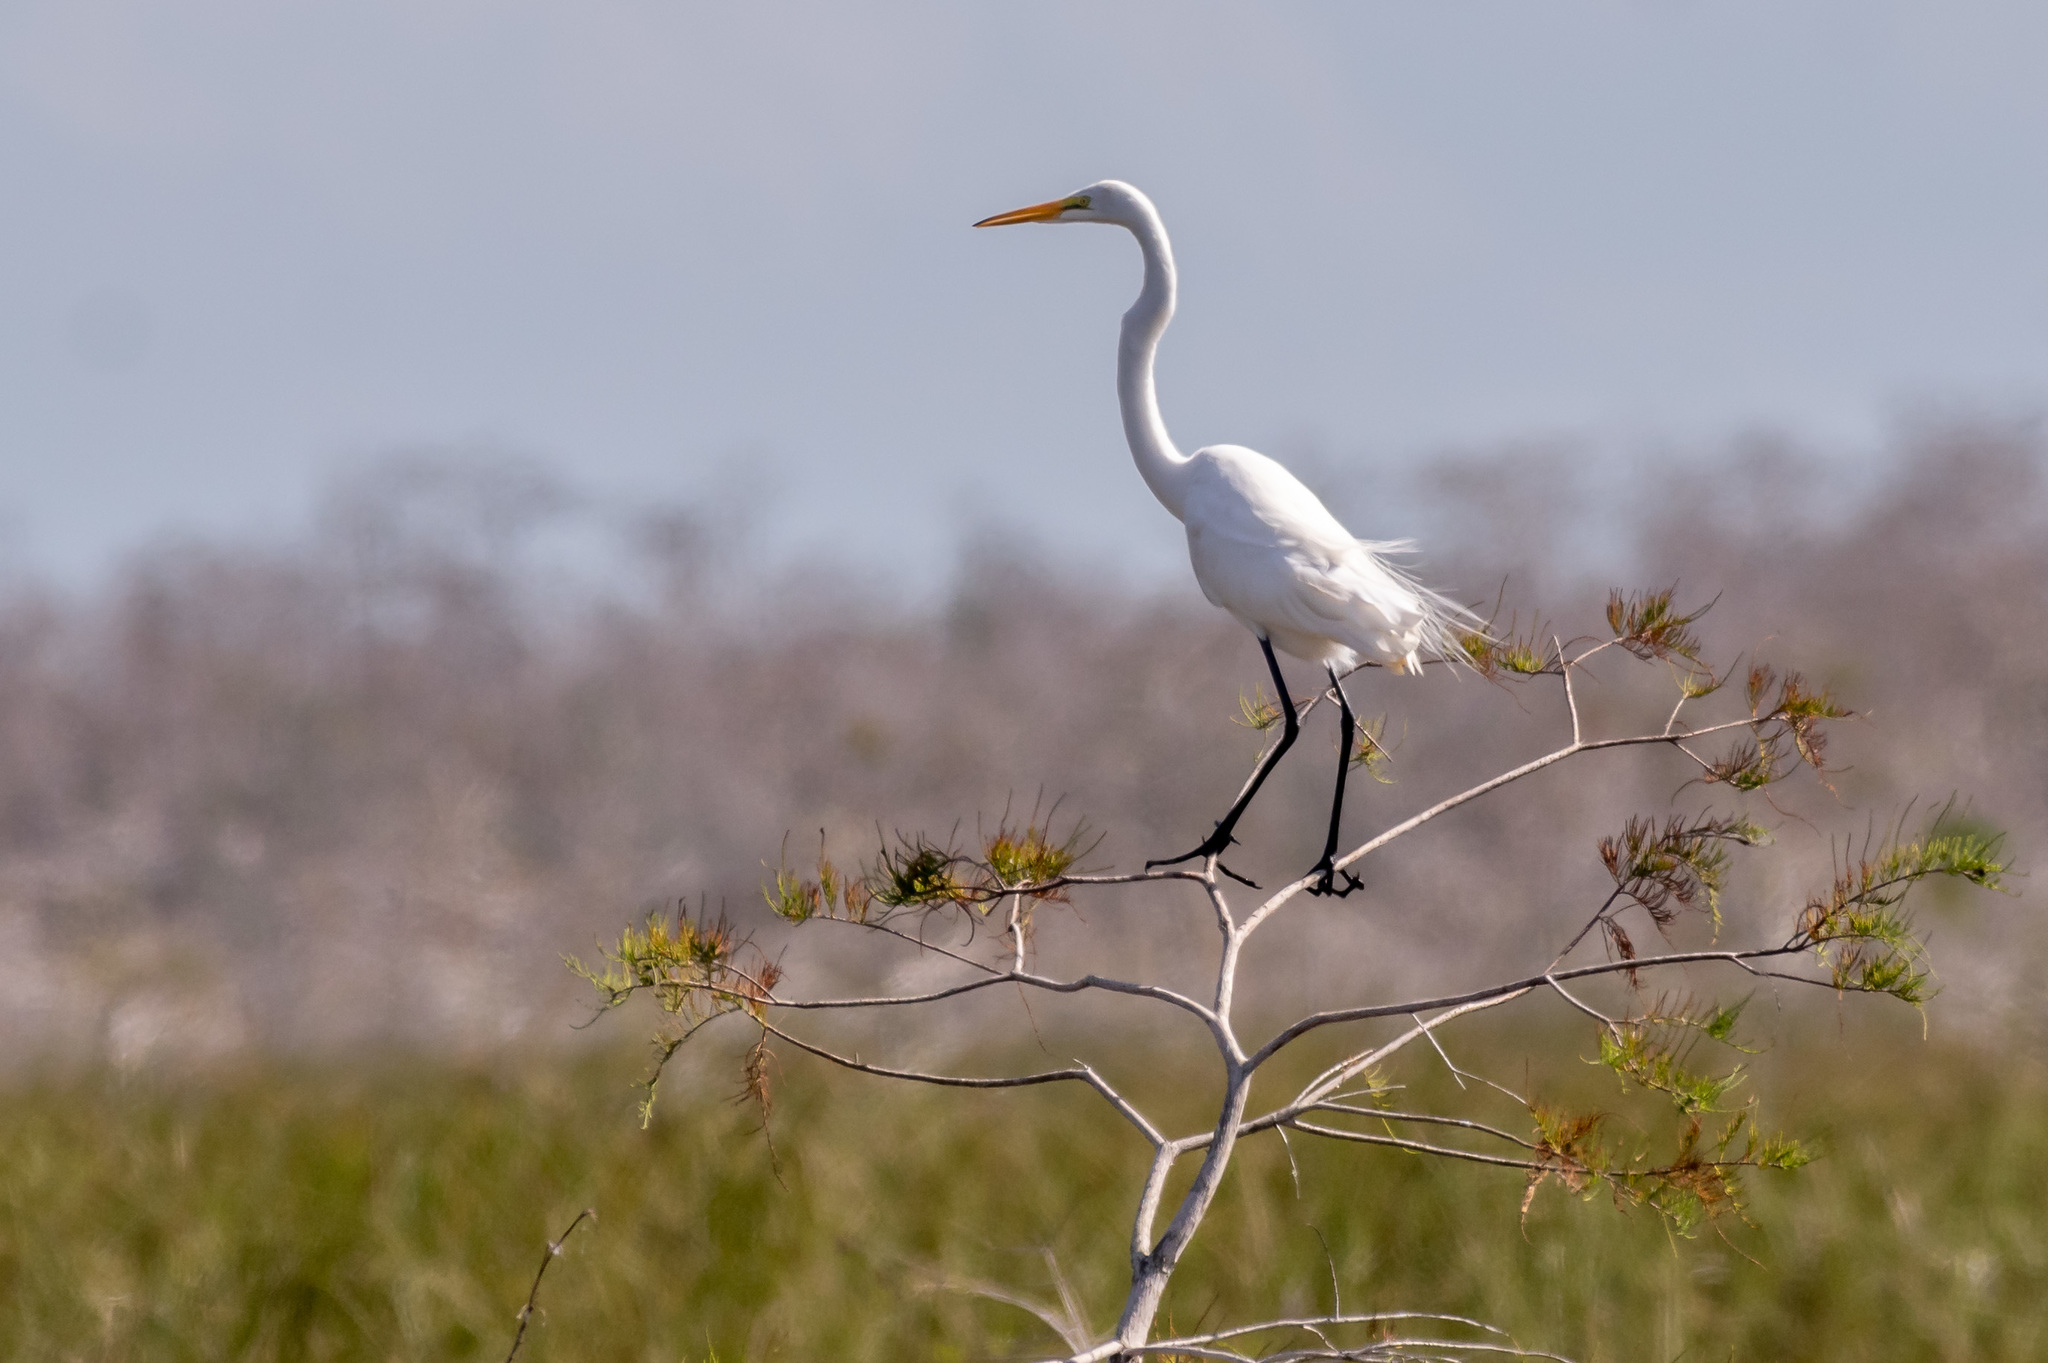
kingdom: Animalia
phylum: Chordata
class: Aves
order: Pelecaniformes
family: Ardeidae
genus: Ardea
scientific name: Ardea alba
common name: Great egret
